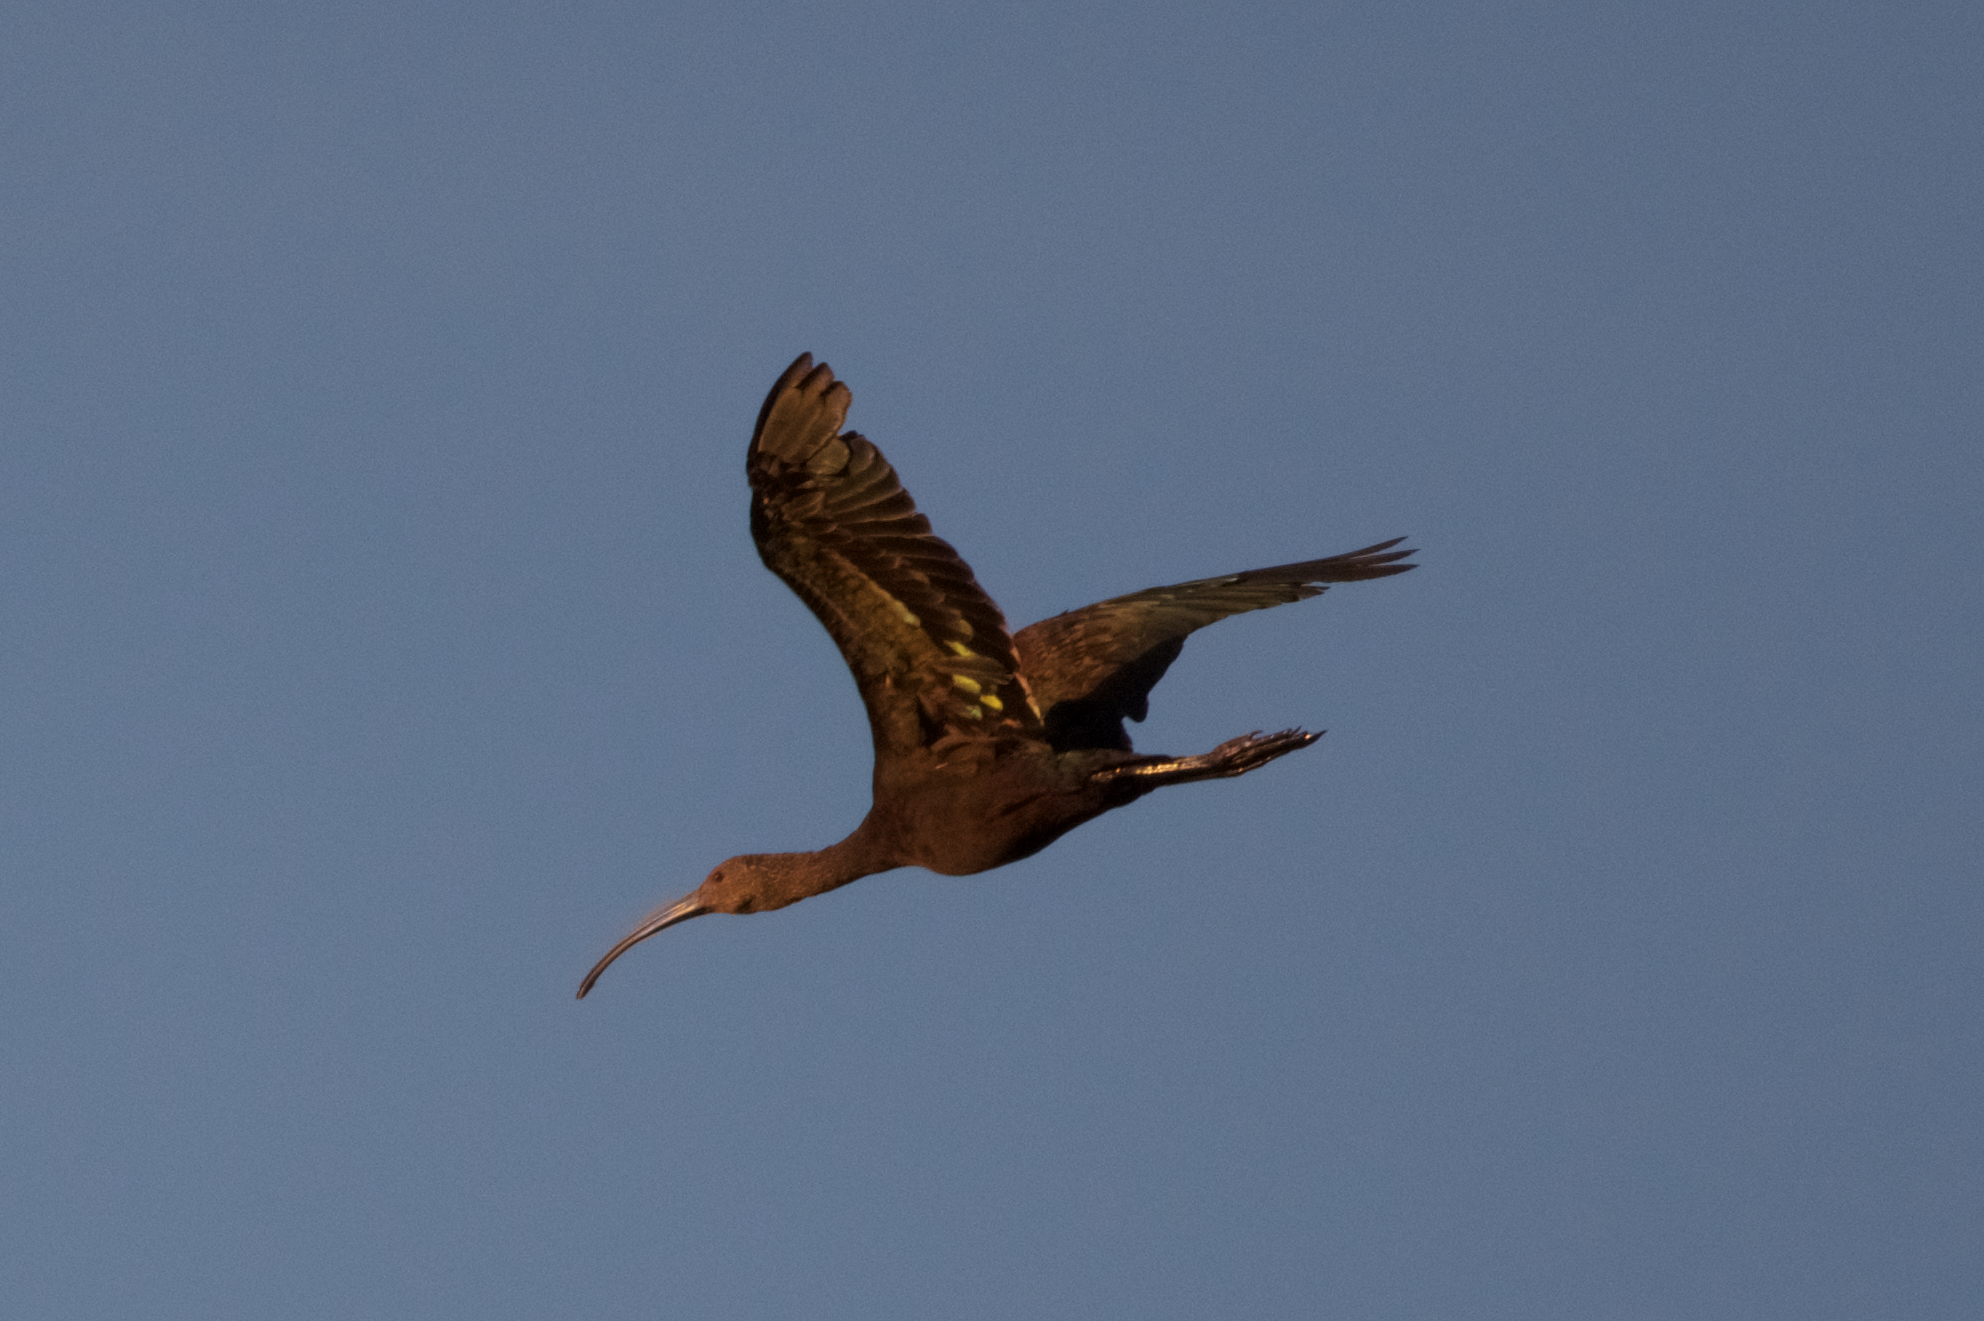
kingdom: Animalia
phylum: Chordata
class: Aves
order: Pelecaniformes
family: Threskiornithidae
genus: Plegadis
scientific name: Plegadis chihi
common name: White-faced ibis
